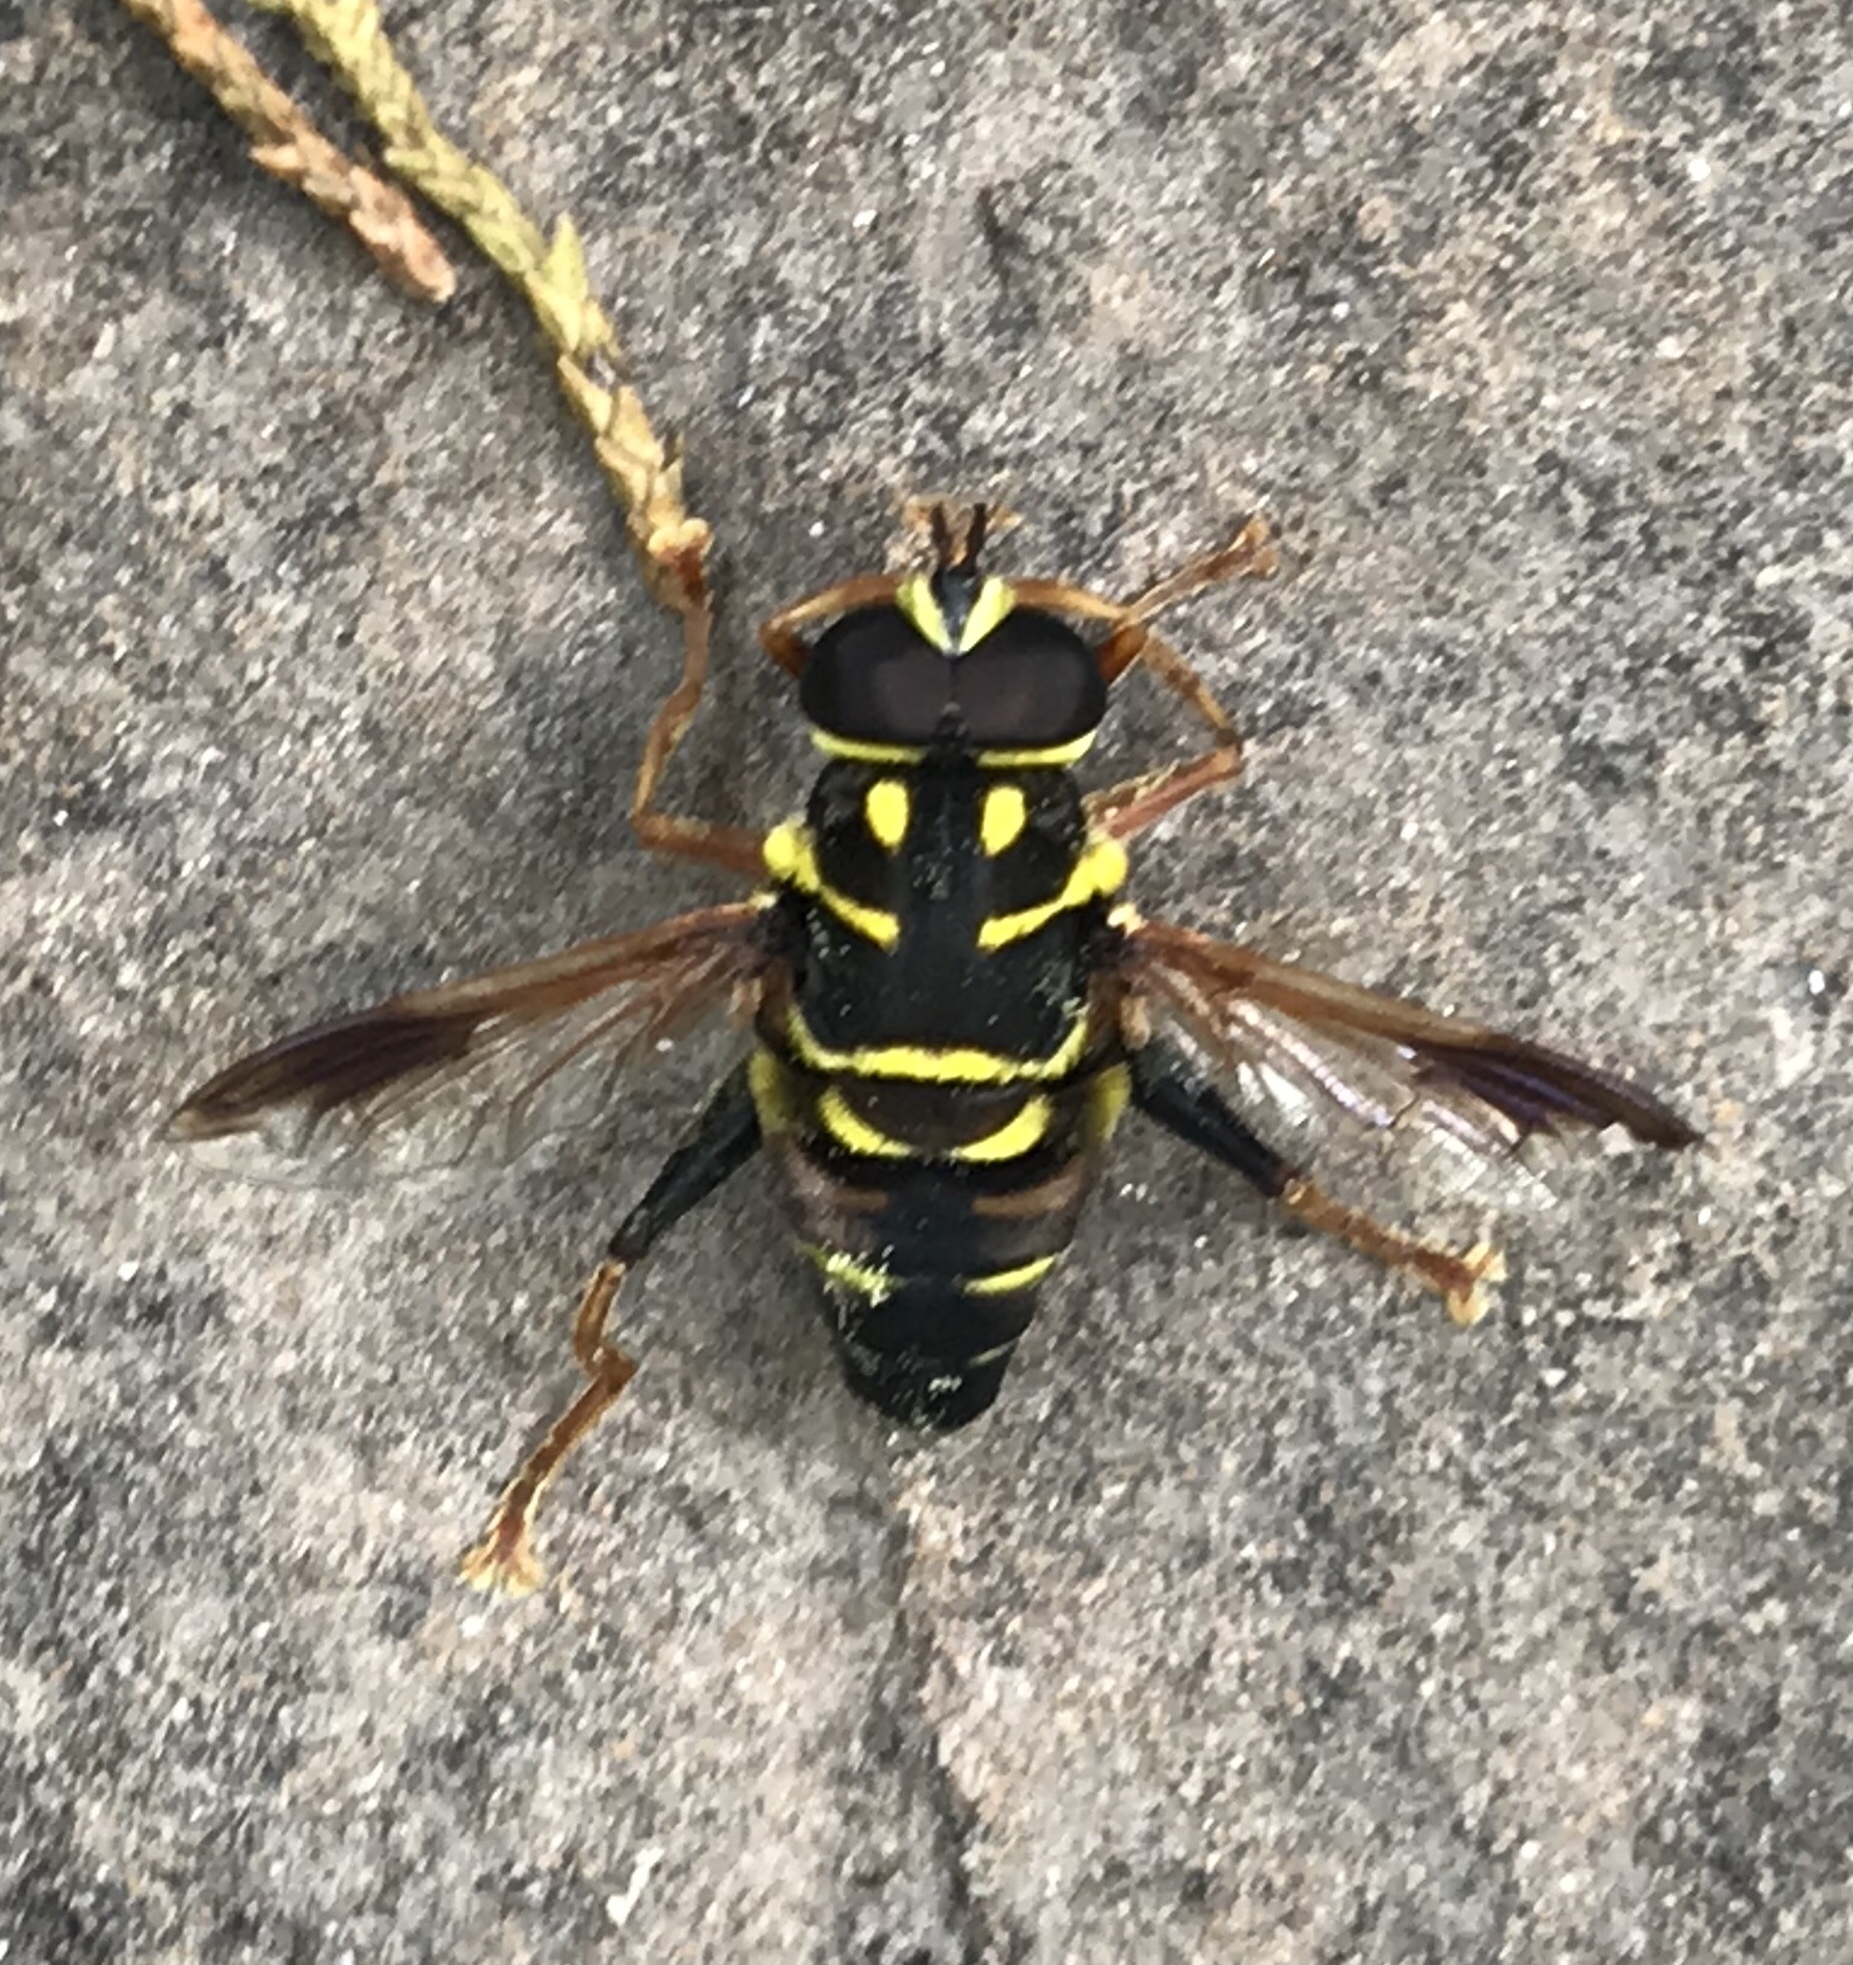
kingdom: Animalia
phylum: Arthropoda
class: Insecta
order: Diptera
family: Syrphidae
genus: Meromacrus
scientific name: Meromacrus acutus
